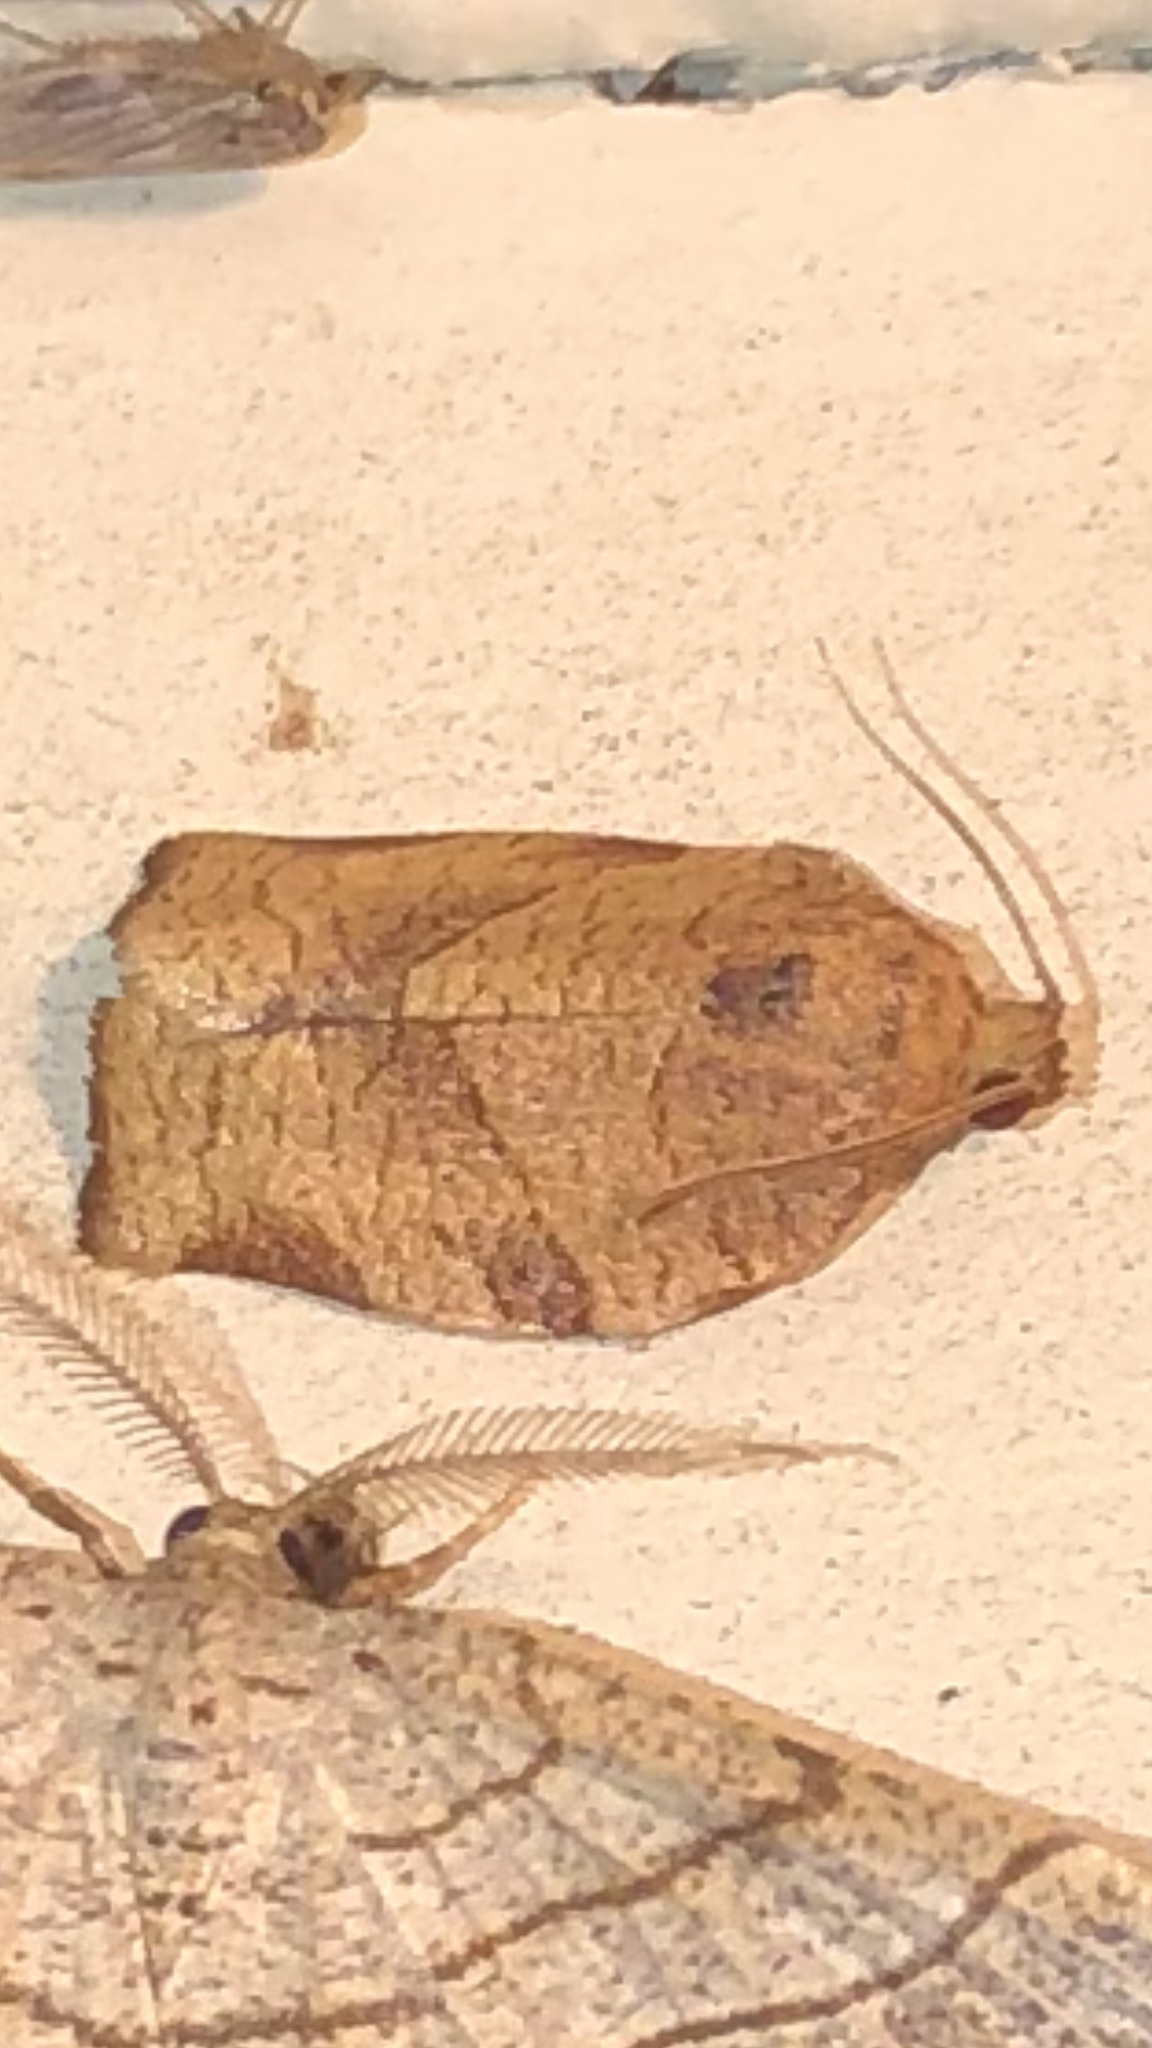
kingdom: Animalia
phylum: Arthropoda
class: Insecta
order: Lepidoptera
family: Tortricidae
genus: Choristoneura
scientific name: Choristoneura rosaceana
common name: Oblique-banded leafroller moth
